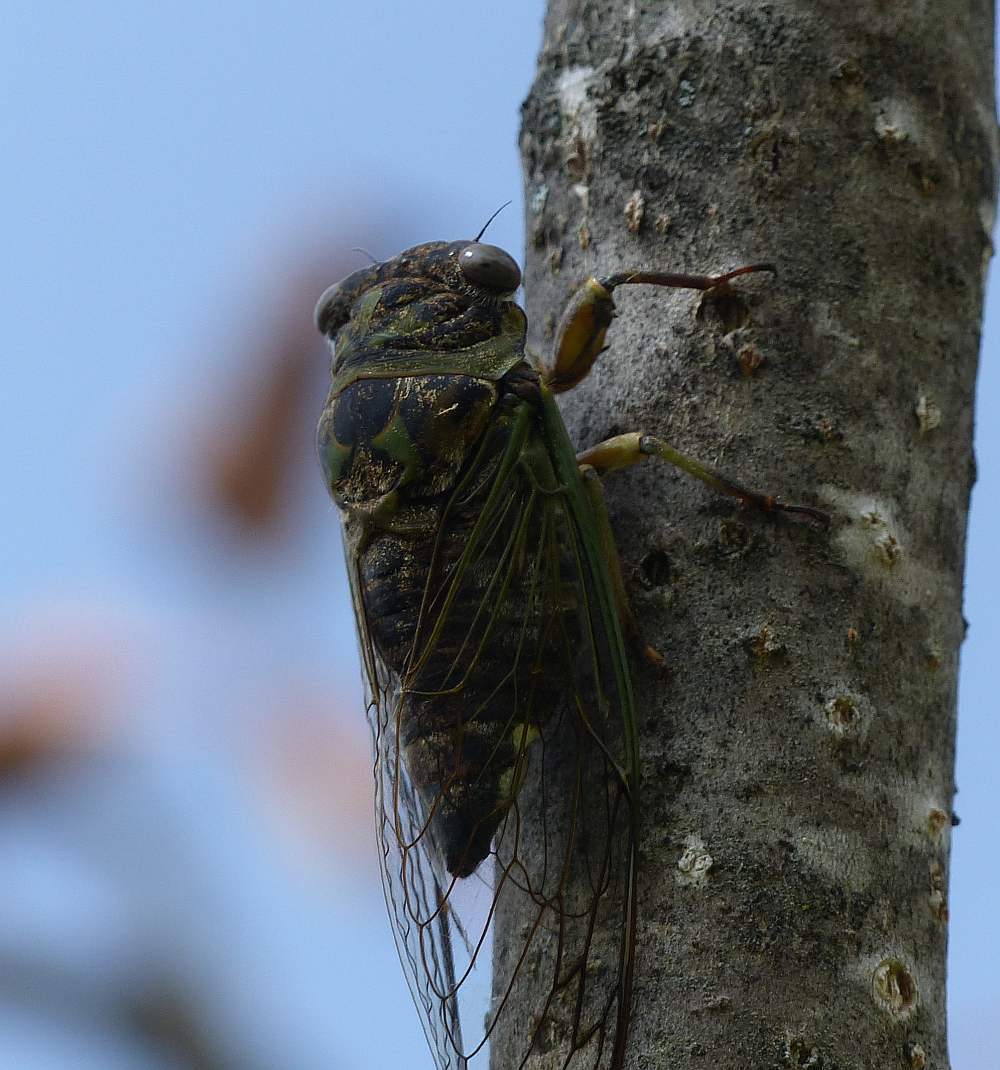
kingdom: Animalia
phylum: Arthropoda
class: Insecta
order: Hemiptera
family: Cicadidae
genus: Neotibicen
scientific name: Neotibicen canicularis
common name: God-day cicada
